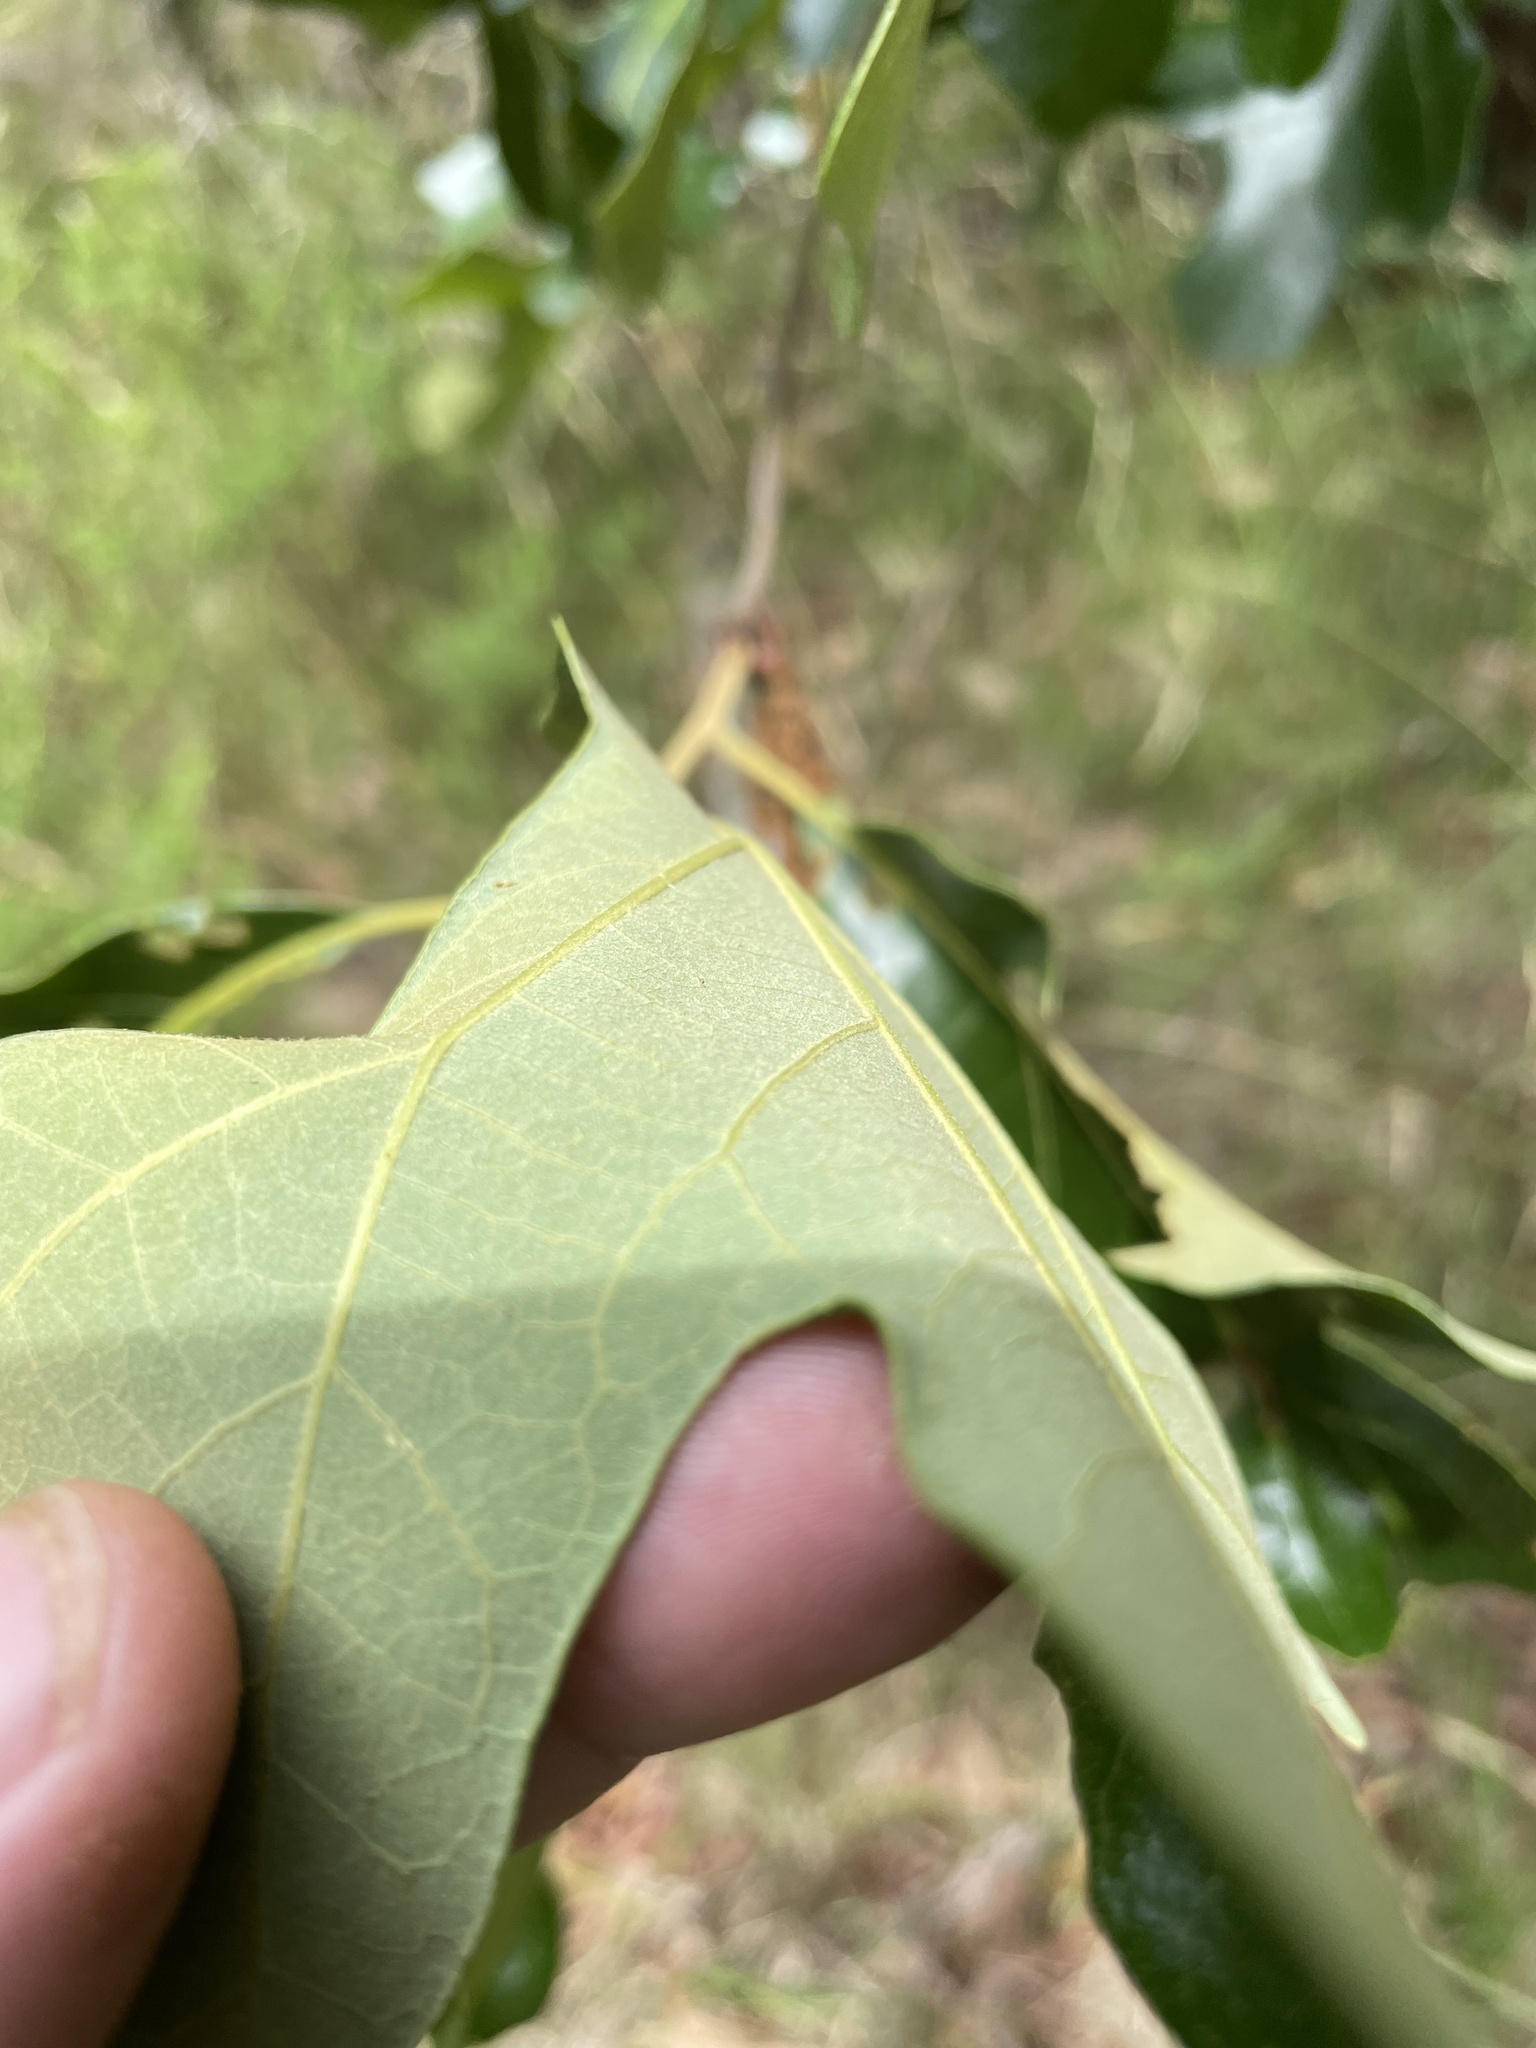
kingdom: Plantae
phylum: Tracheophyta
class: Magnoliopsida
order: Fagales
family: Fagaceae
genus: Quercus
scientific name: Quercus stellata
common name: Post oak
